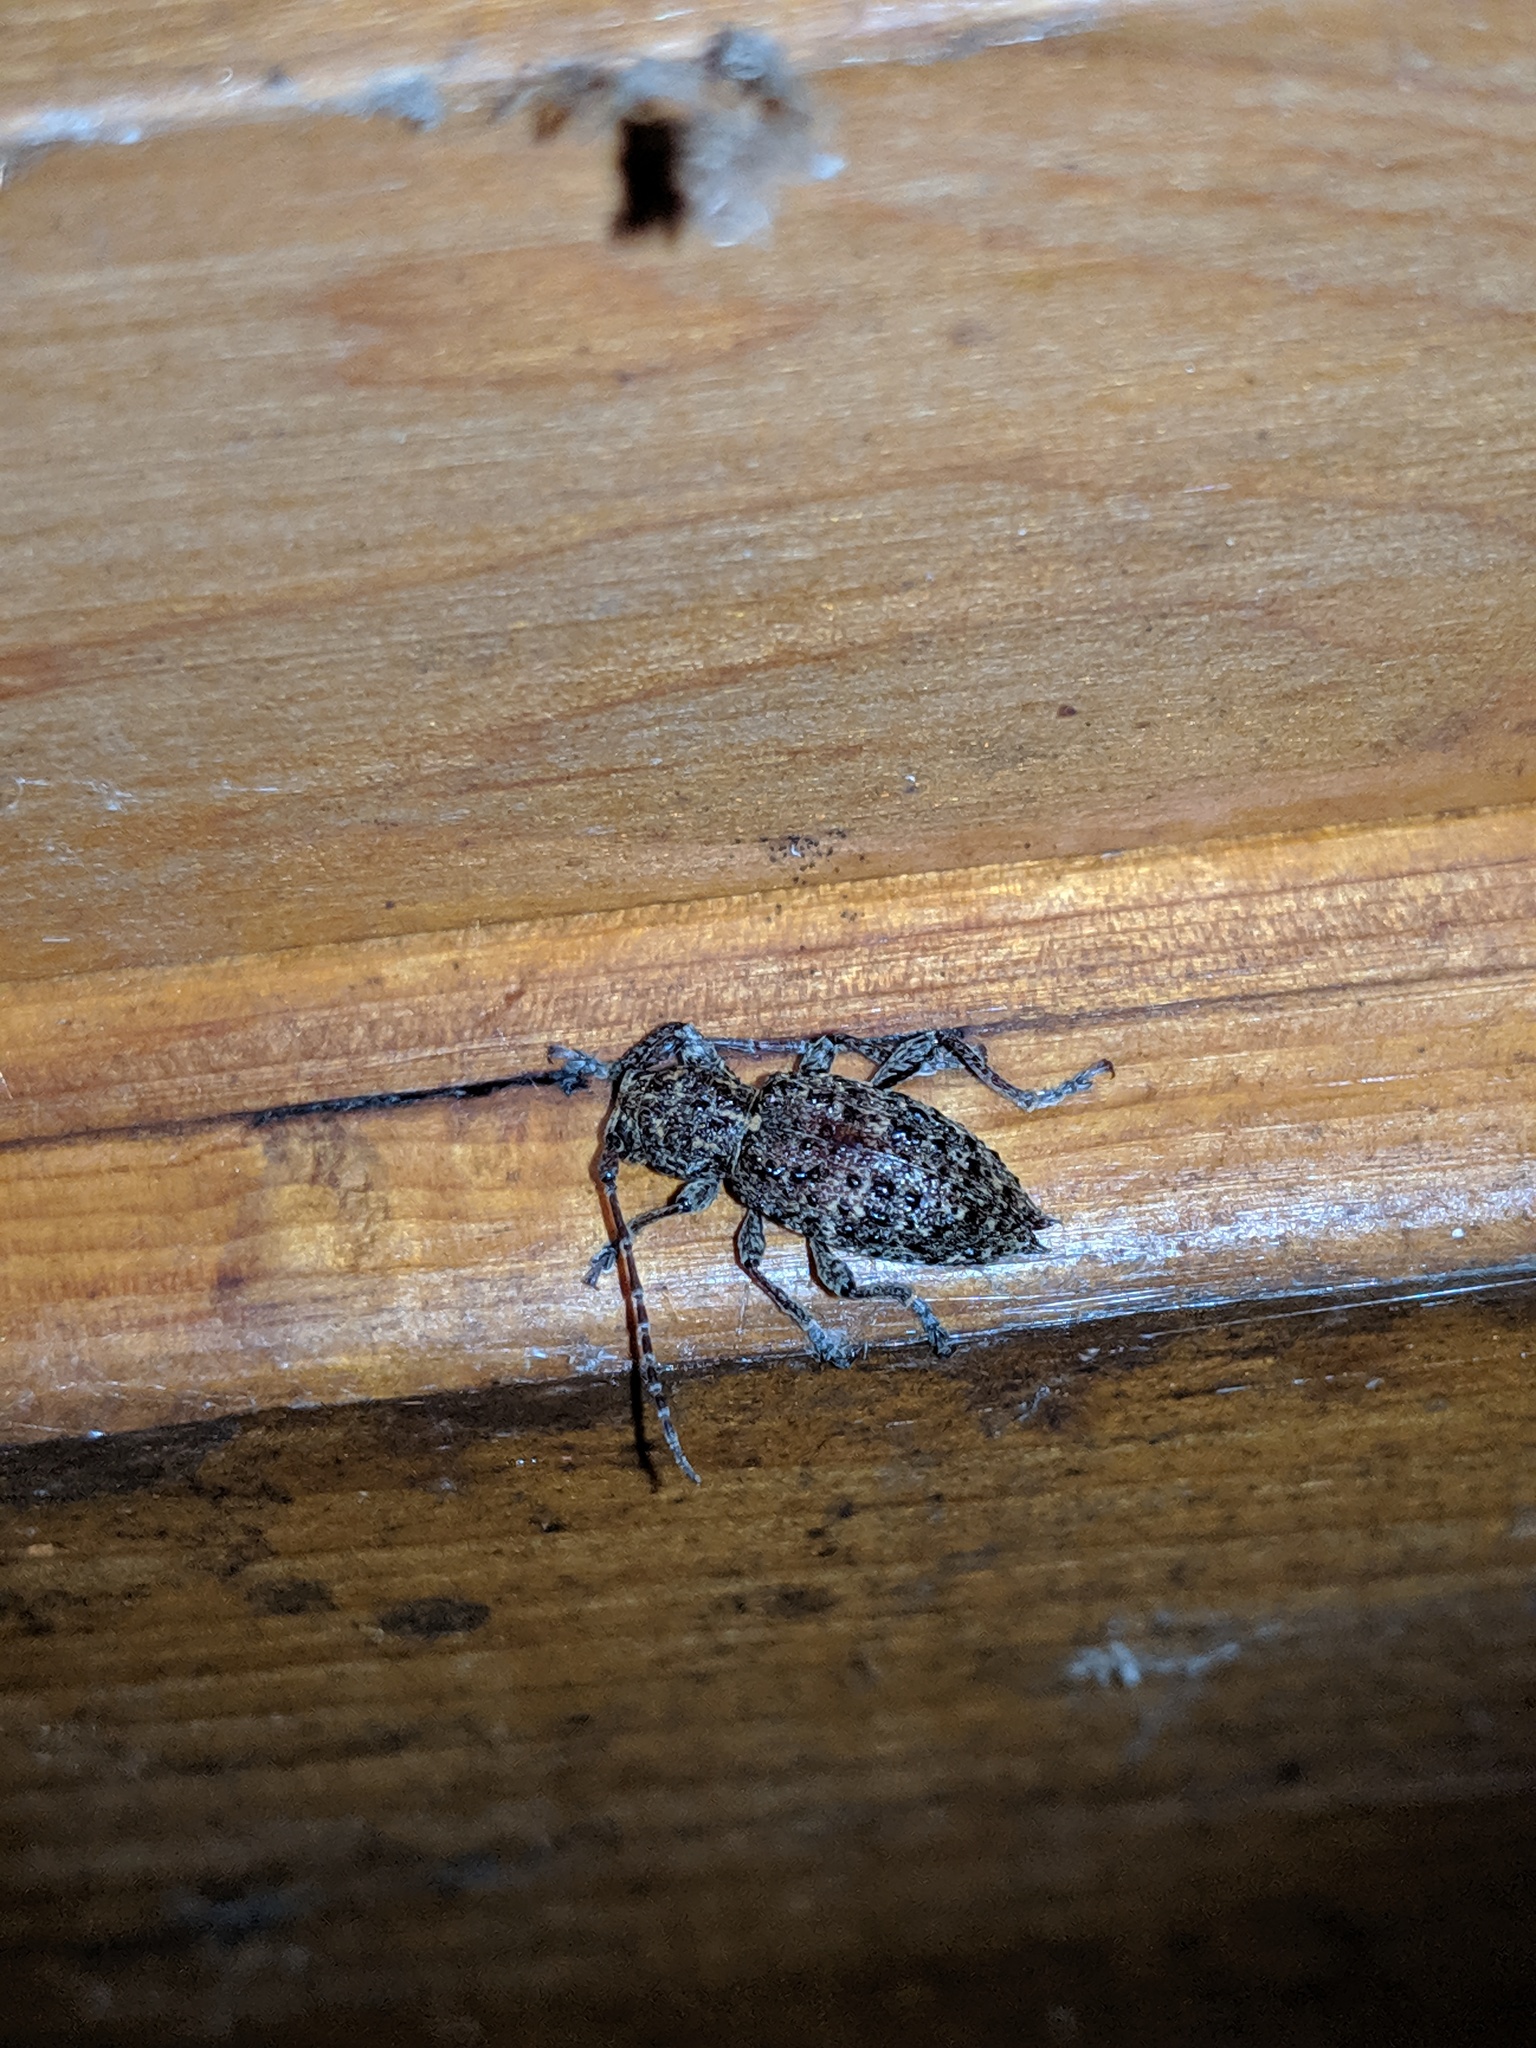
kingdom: Animalia
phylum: Arthropoda
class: Insecta
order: Coleoptera
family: Cerambycidae
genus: Plectrura
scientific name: Plectrura spinicauda
